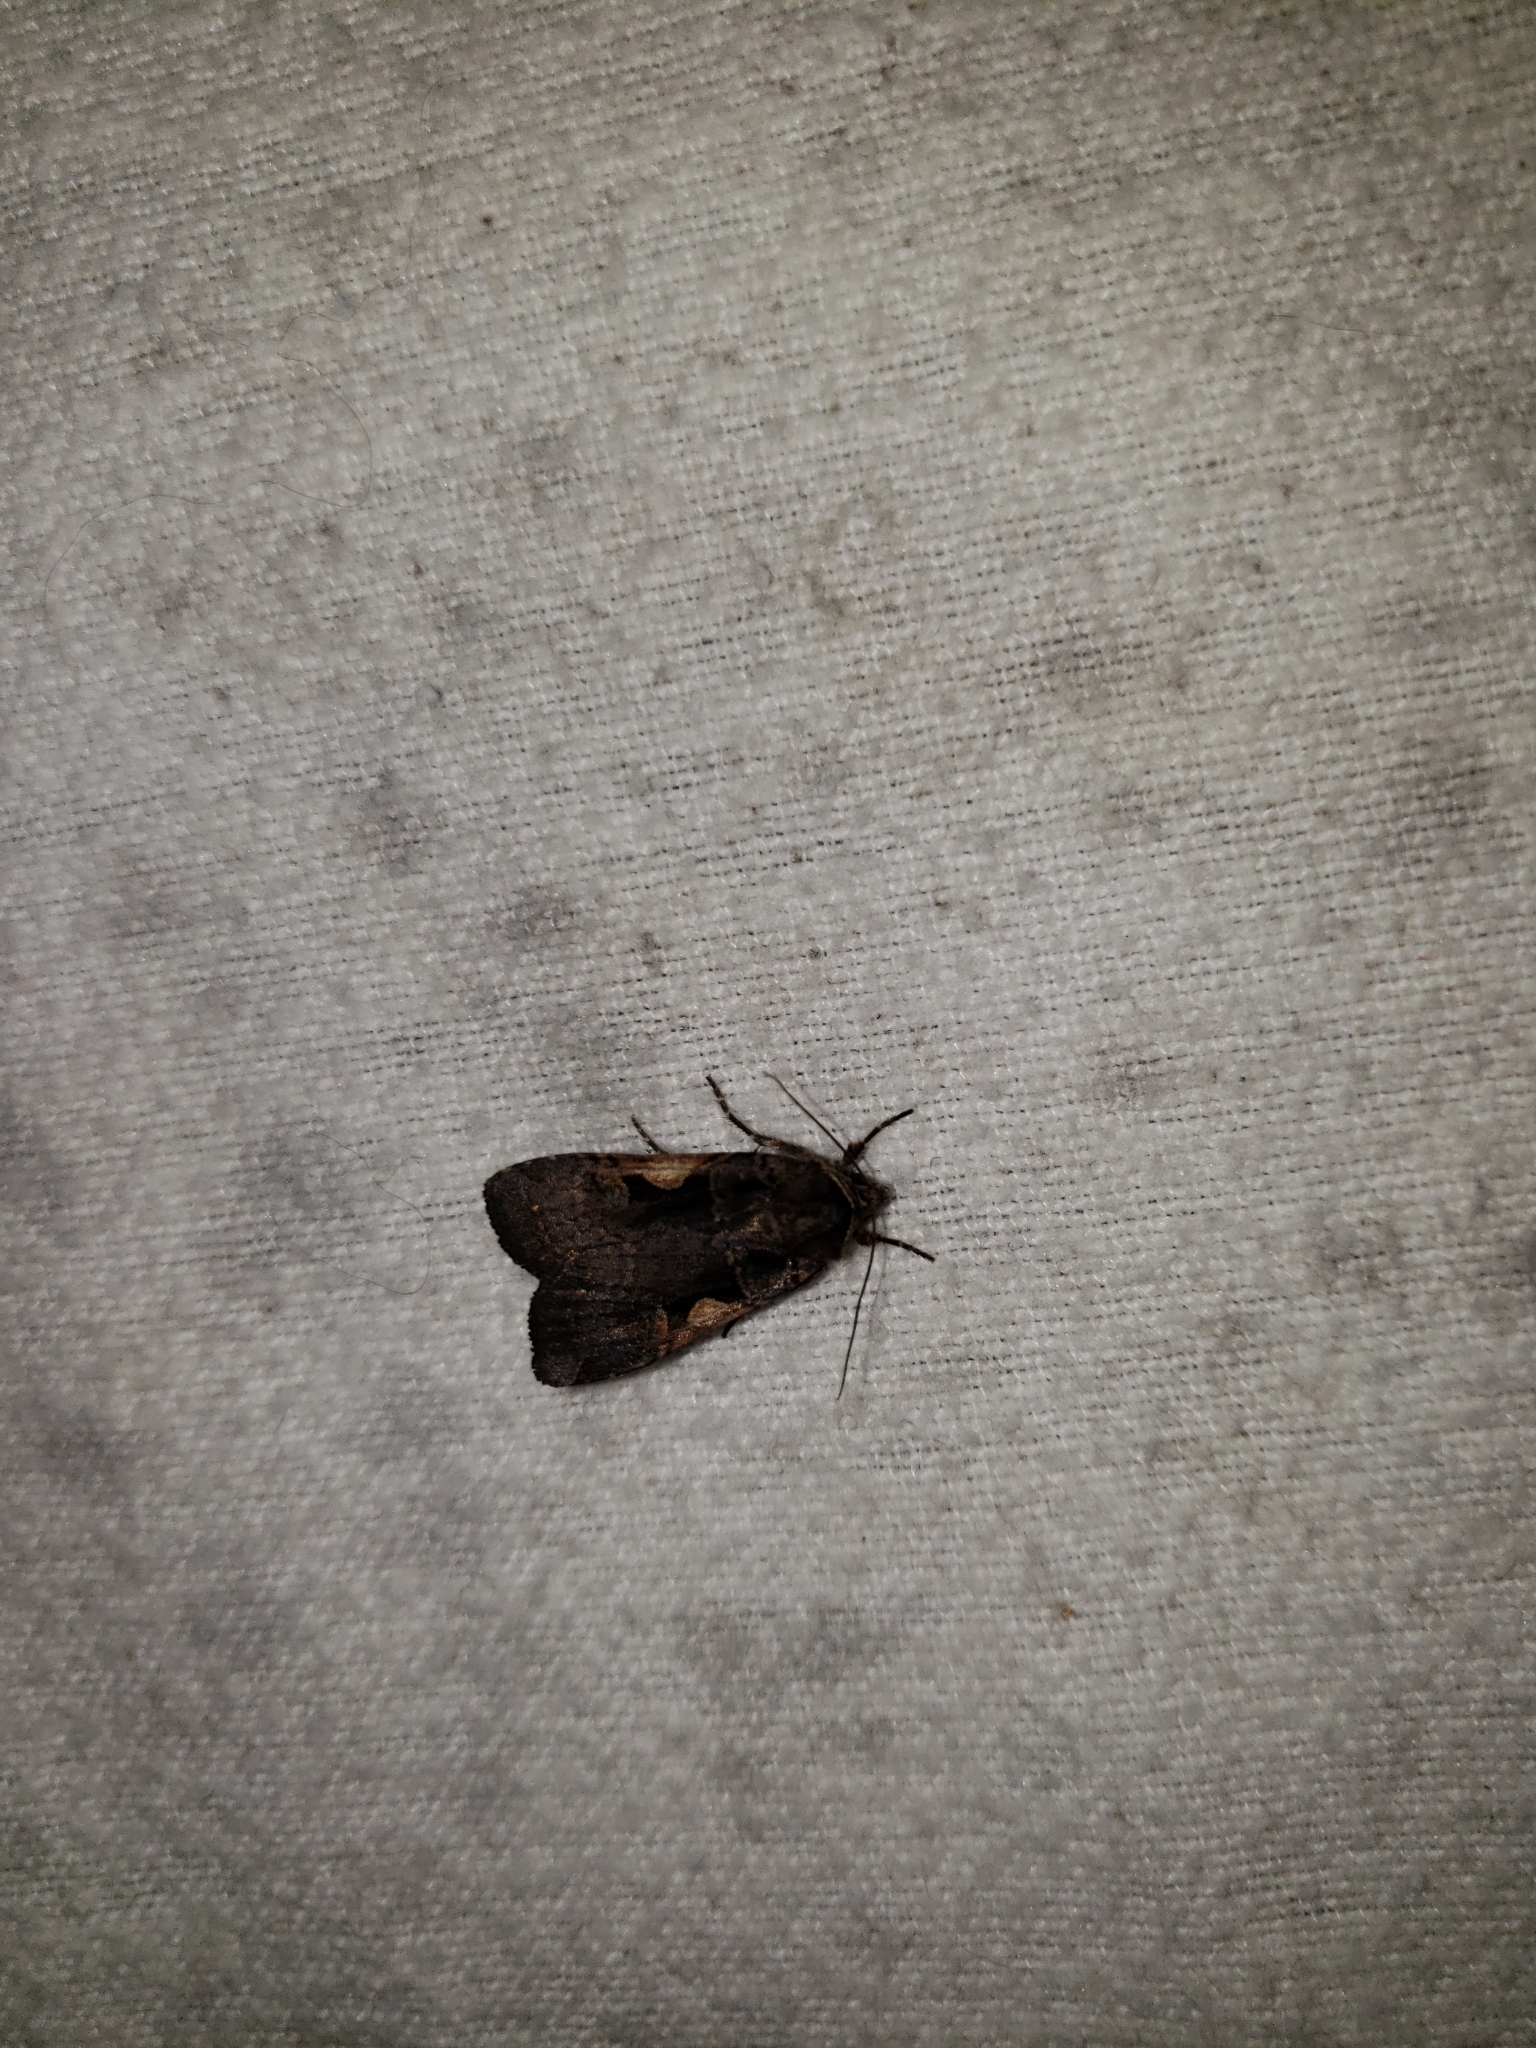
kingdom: Animalia
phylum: Arthropoda
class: Insecta
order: Lepidoptera
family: Noctuidae
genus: Xestia
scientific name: Xestia
